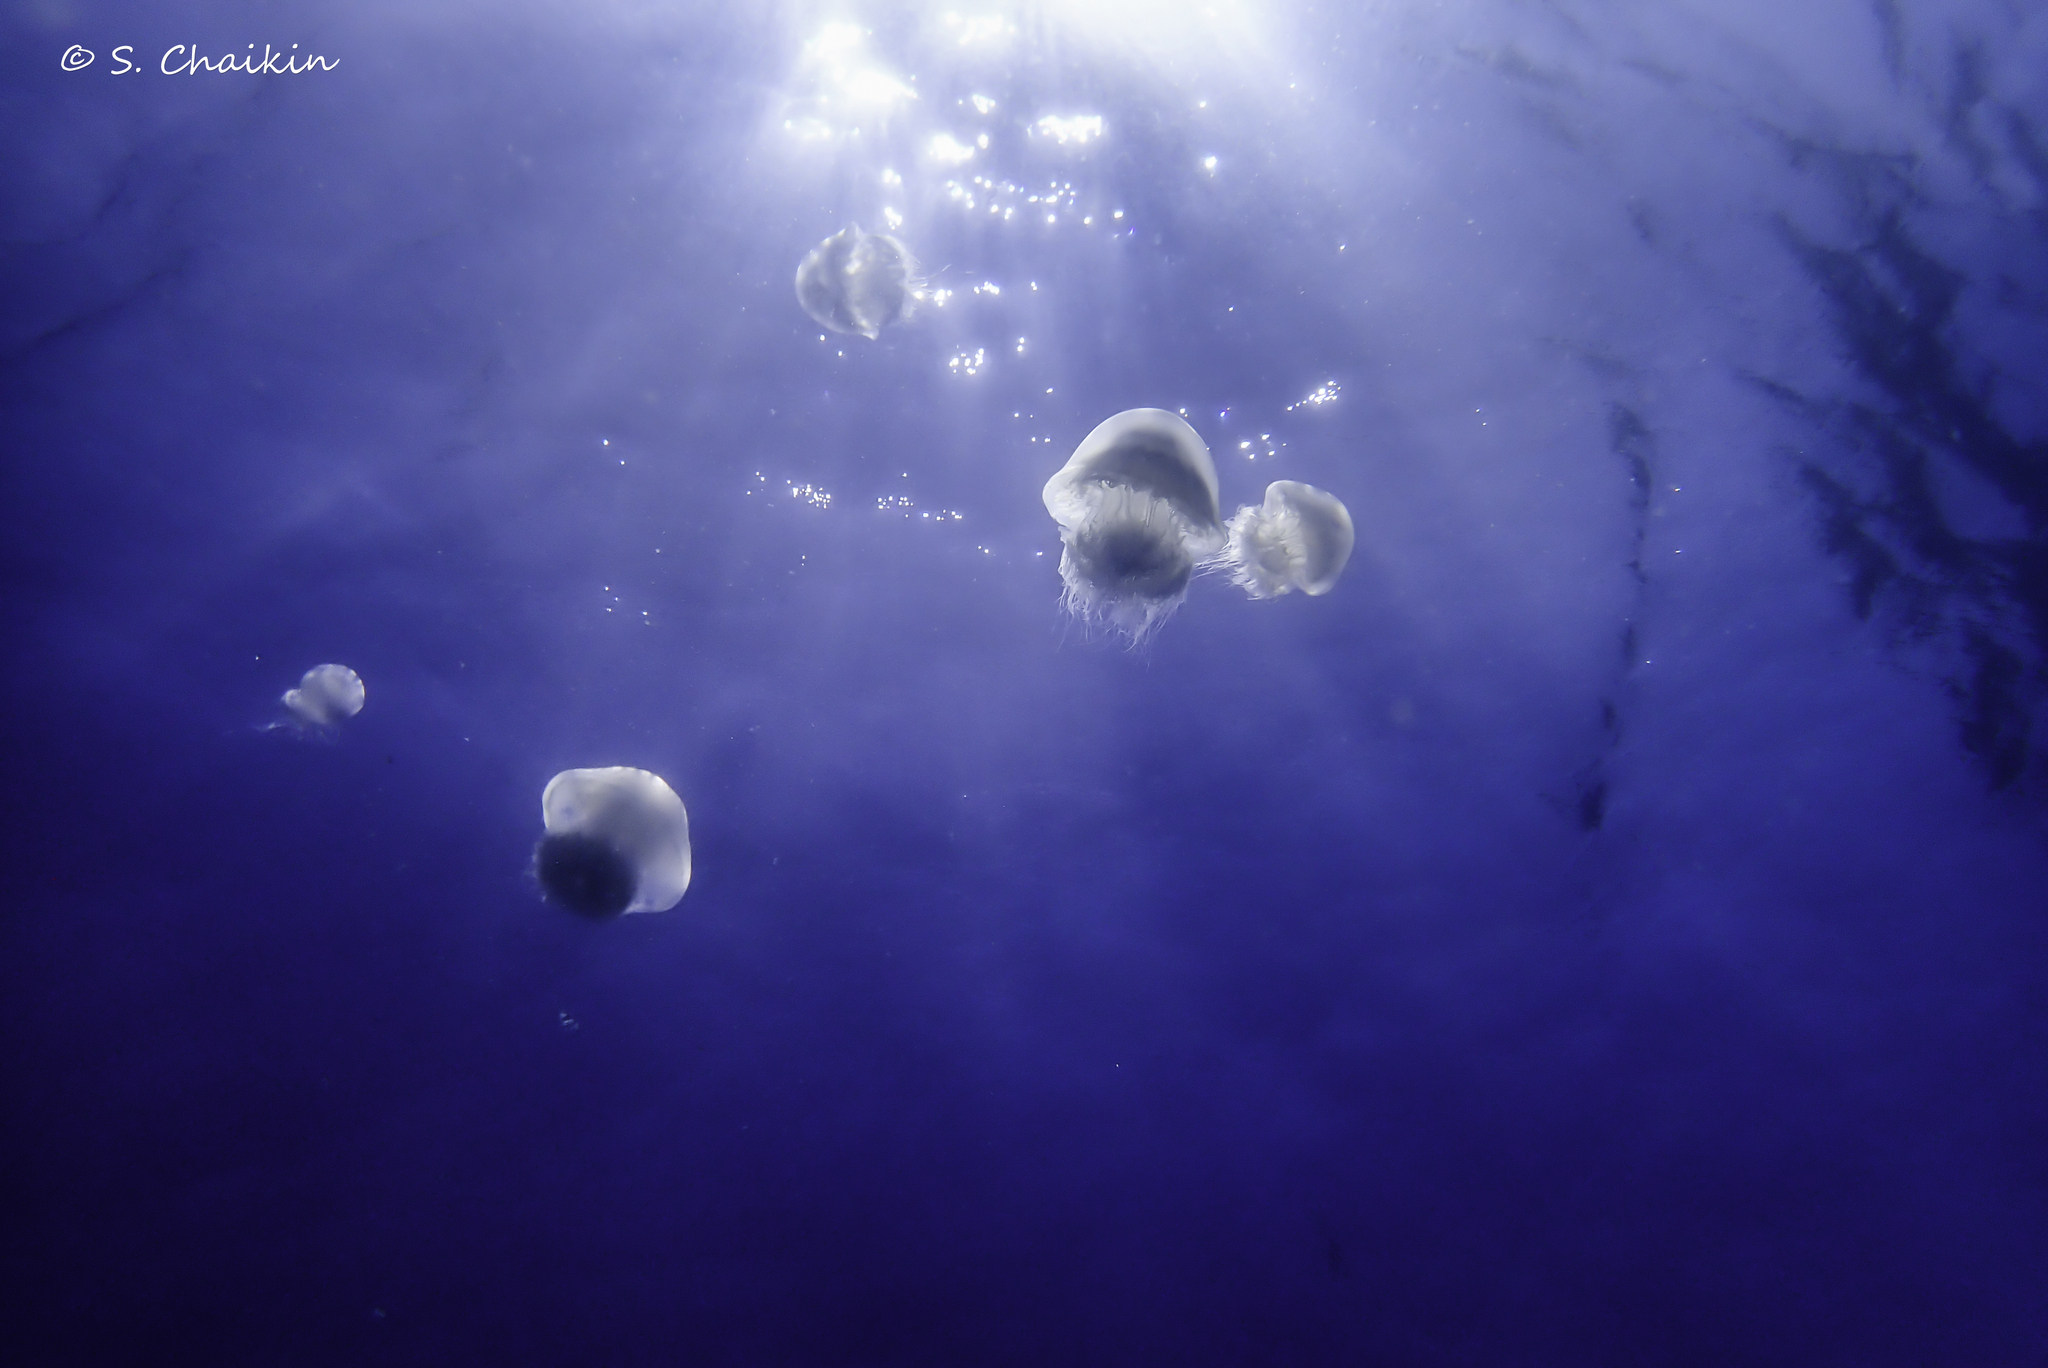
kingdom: Animalia
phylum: Cnidaria
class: Scyphozoa
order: Rhizostomeae
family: Rhizostomatidae
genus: Rhopilema
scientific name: Rhopilema nomadica
